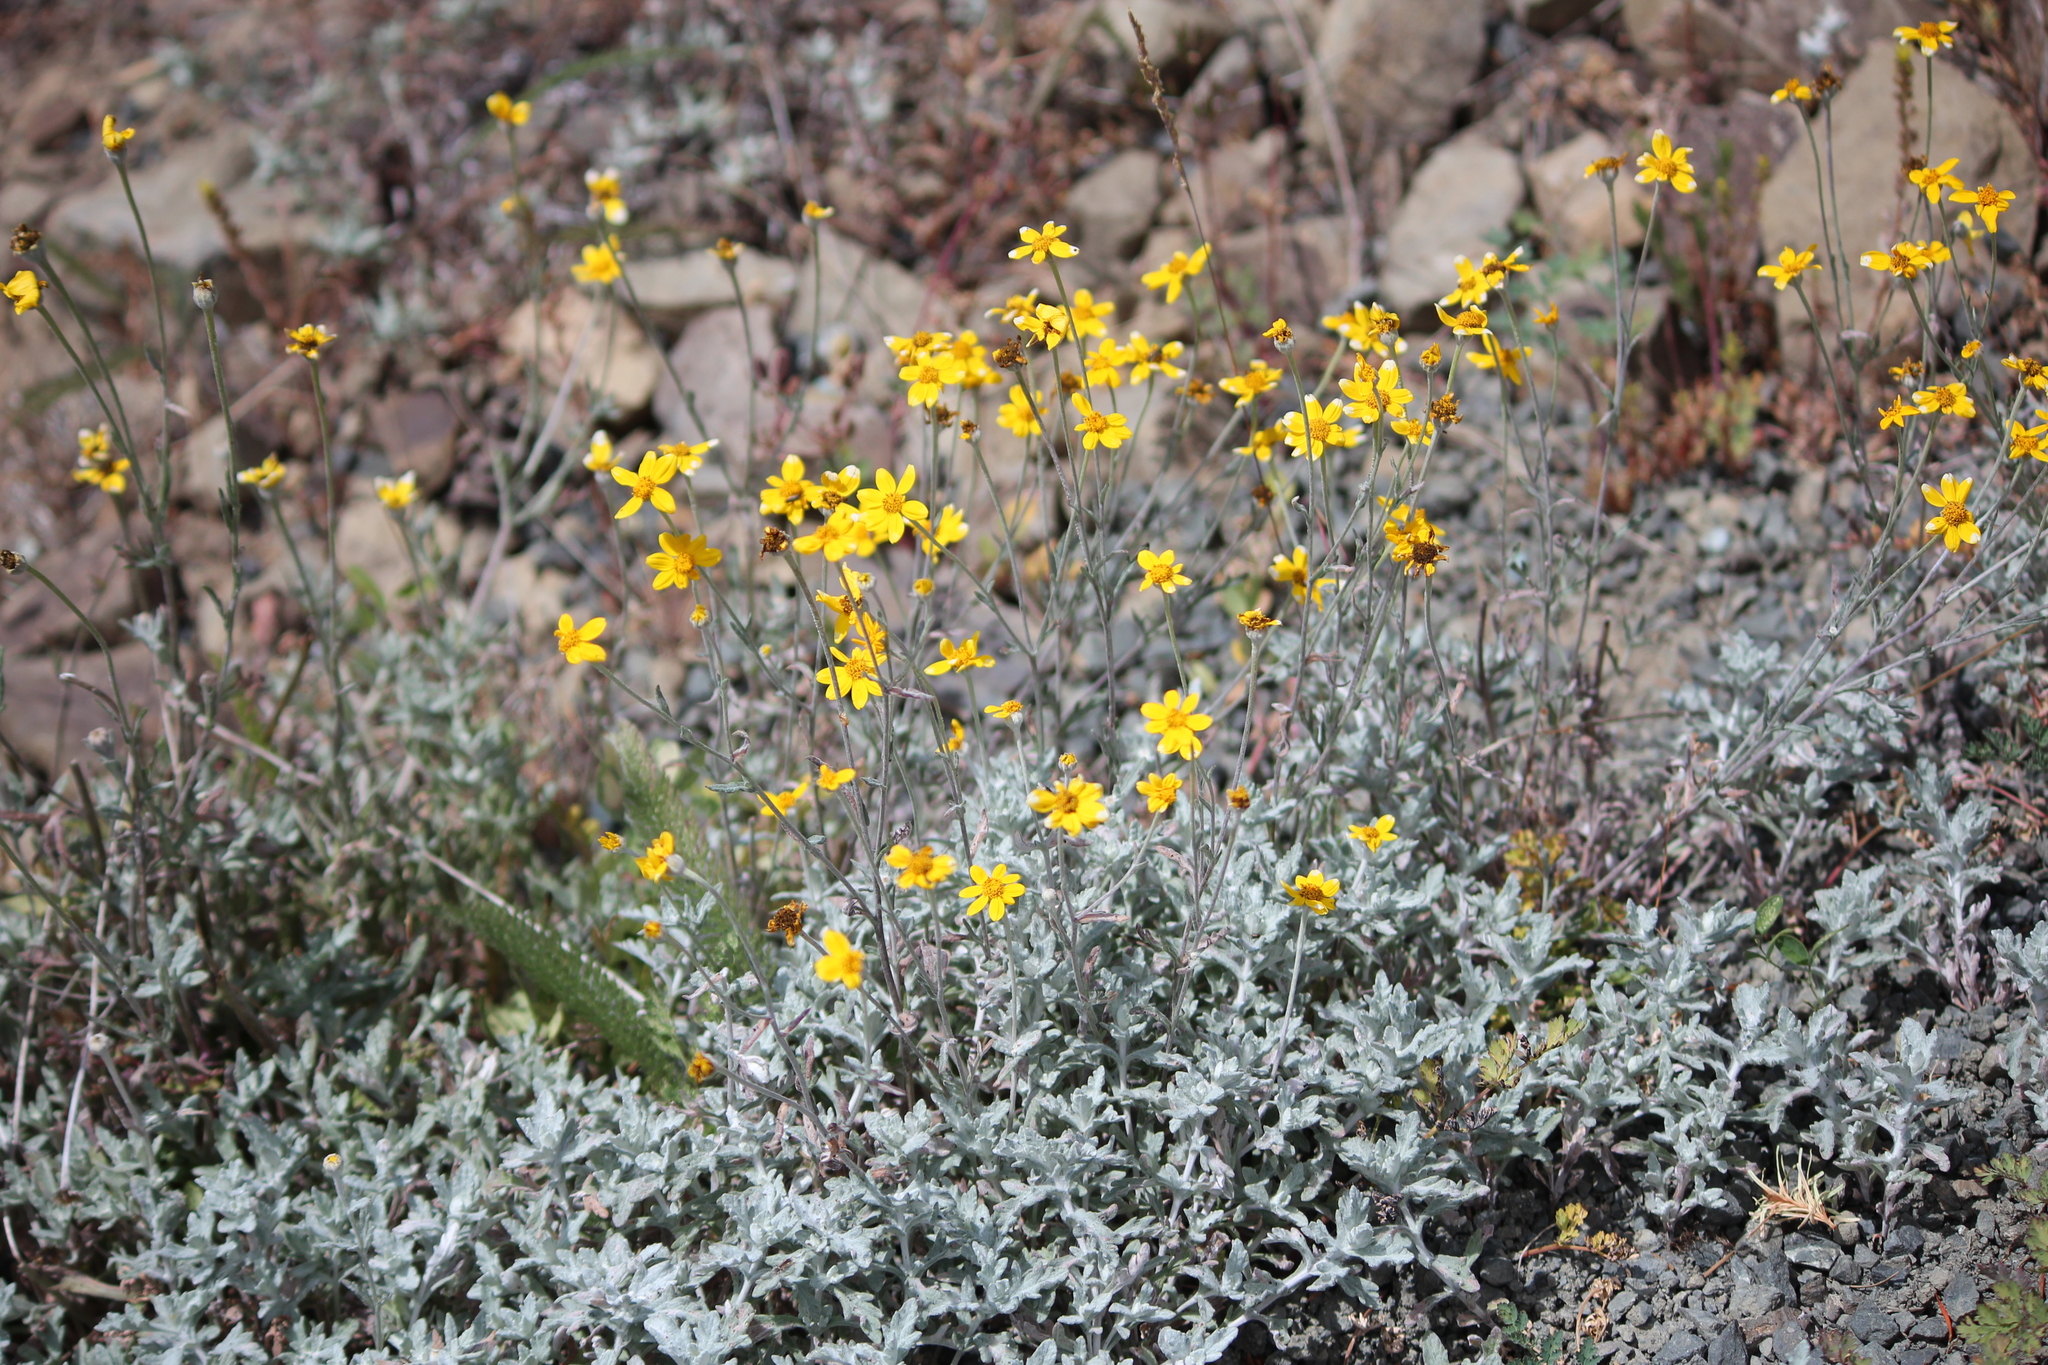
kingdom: Plantae
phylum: Tracheophyta
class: Magnoliopsida
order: Asterales
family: Asteraceae
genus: Eriophyllum
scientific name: Eriophyllum lanatum
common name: Common woolly-sunflower
